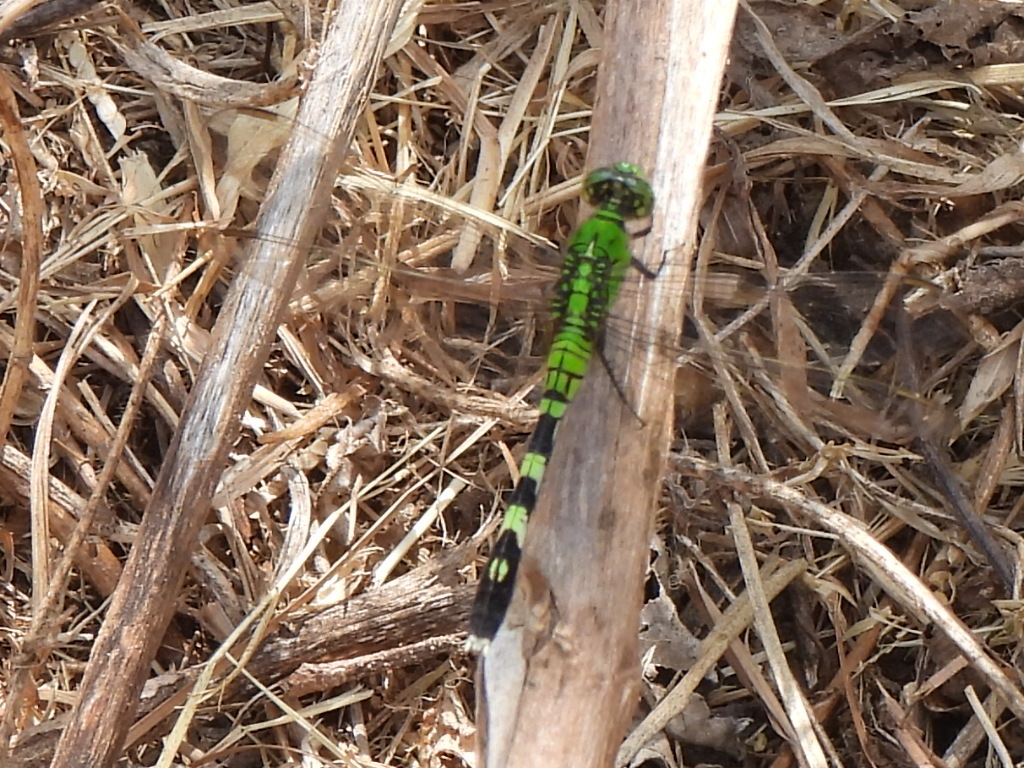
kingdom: Animalia
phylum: Arthropoda
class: Insecta
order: Odonata
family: Libellulidae
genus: Erythemis
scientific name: Erythemis simplicicollis
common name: Eastern pondhawk
